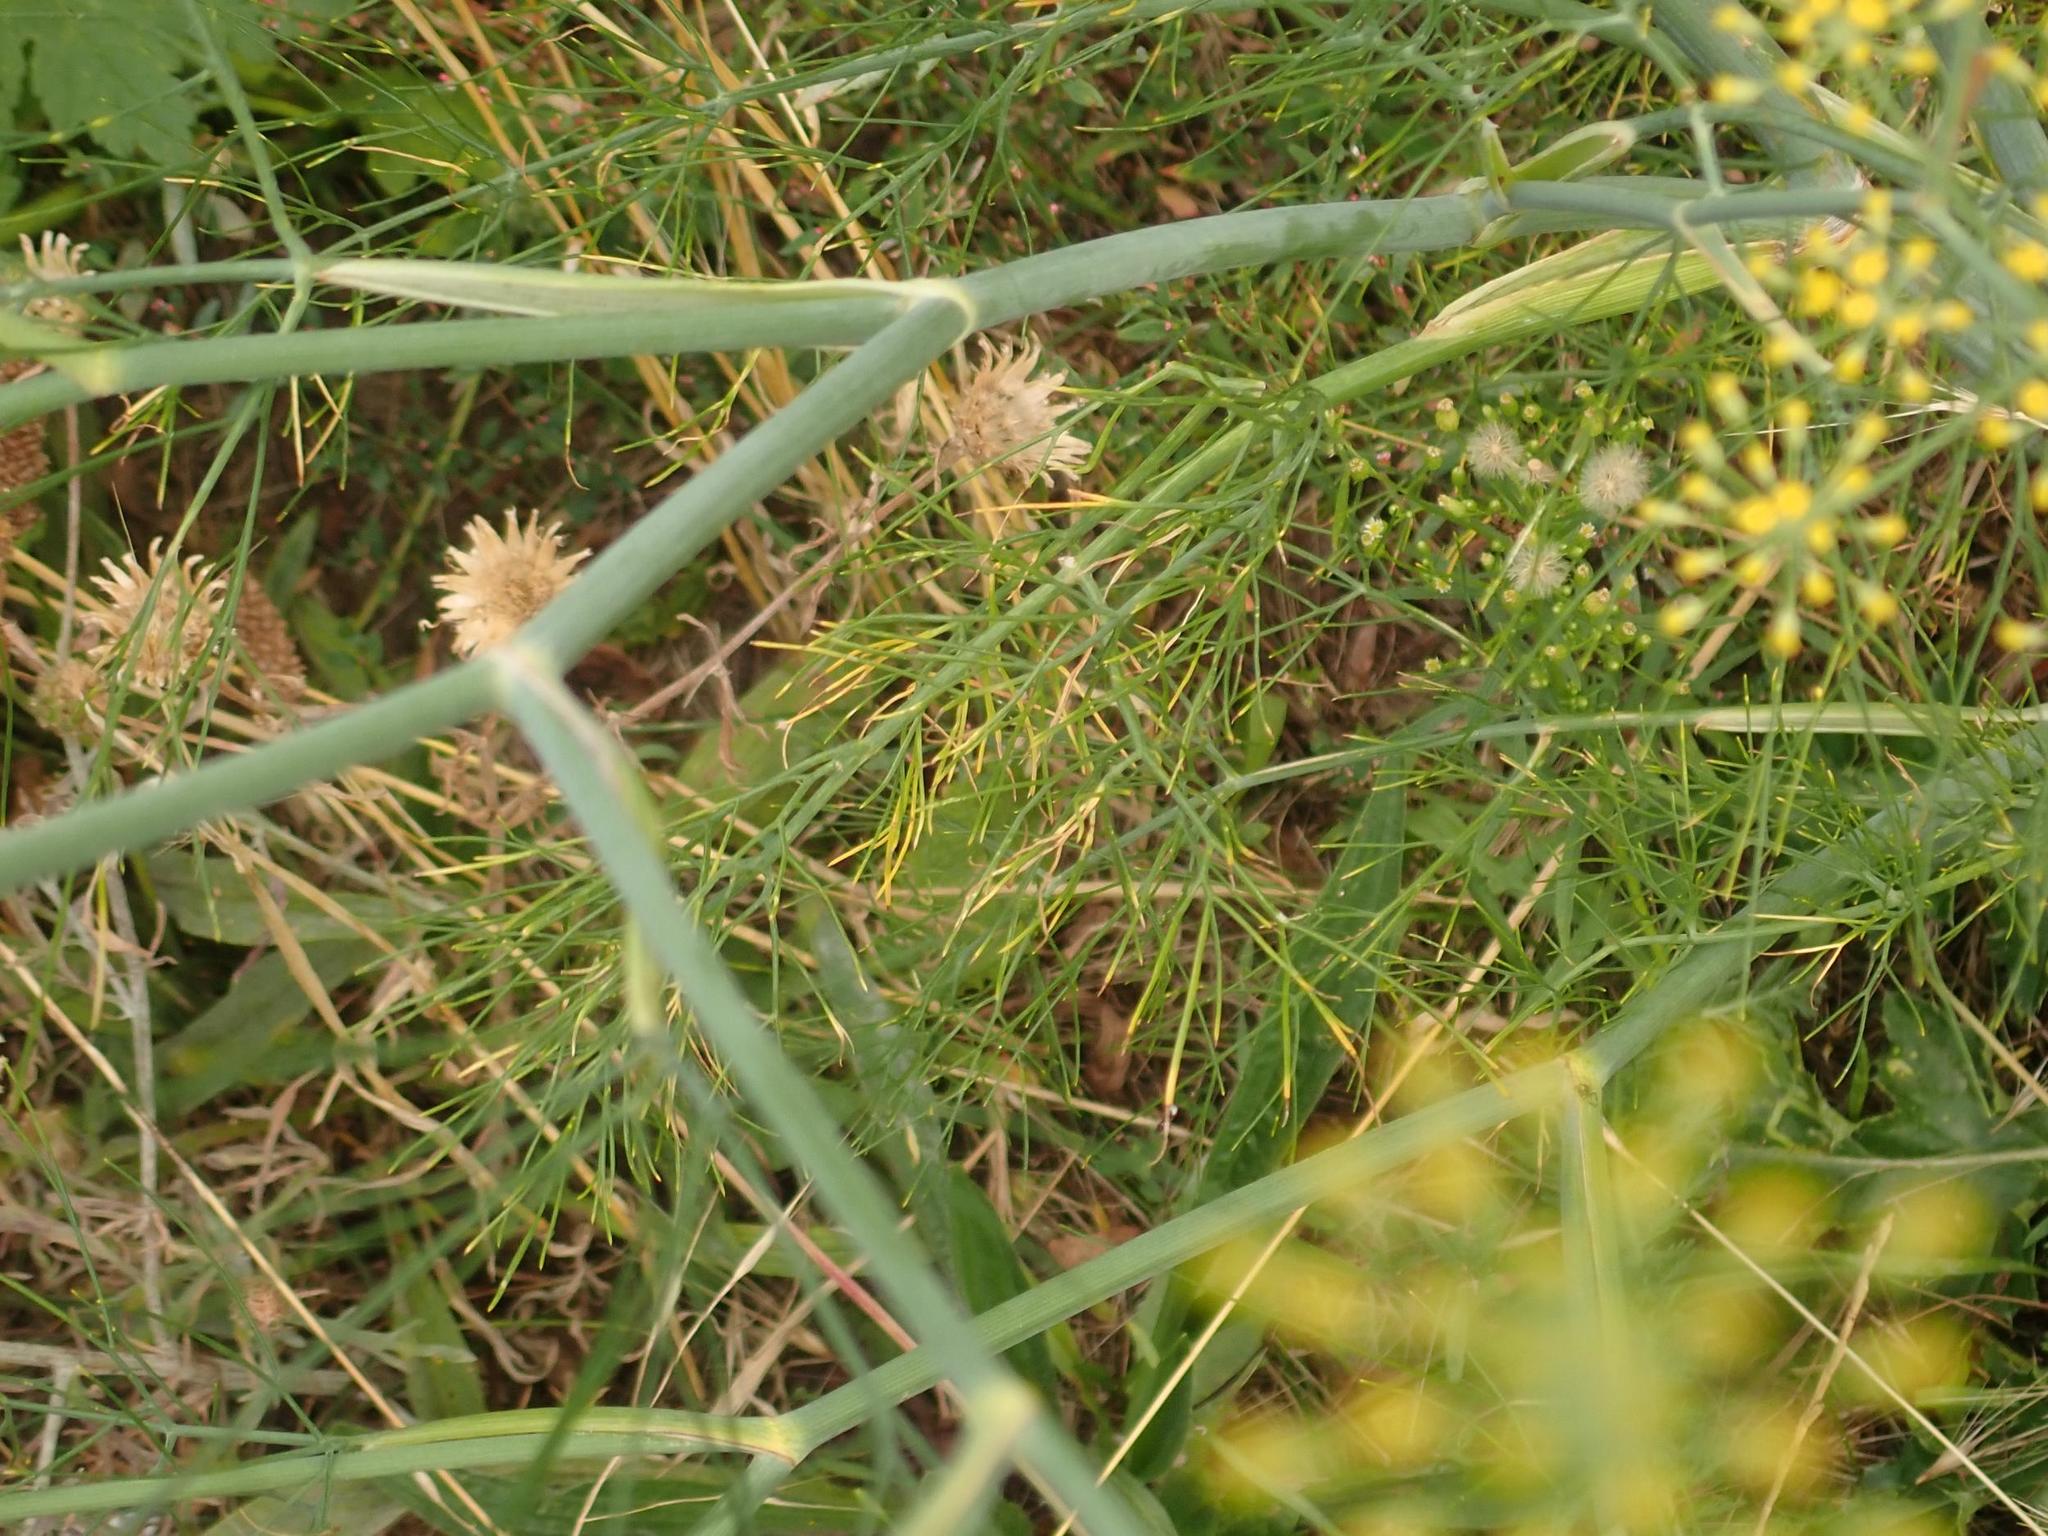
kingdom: Plantae
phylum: Tracheophyta
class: Magnoliopsida
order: Apiales
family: Apiaceae
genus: Foeniculum
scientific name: Foeniculum vulgare
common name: Fennel
